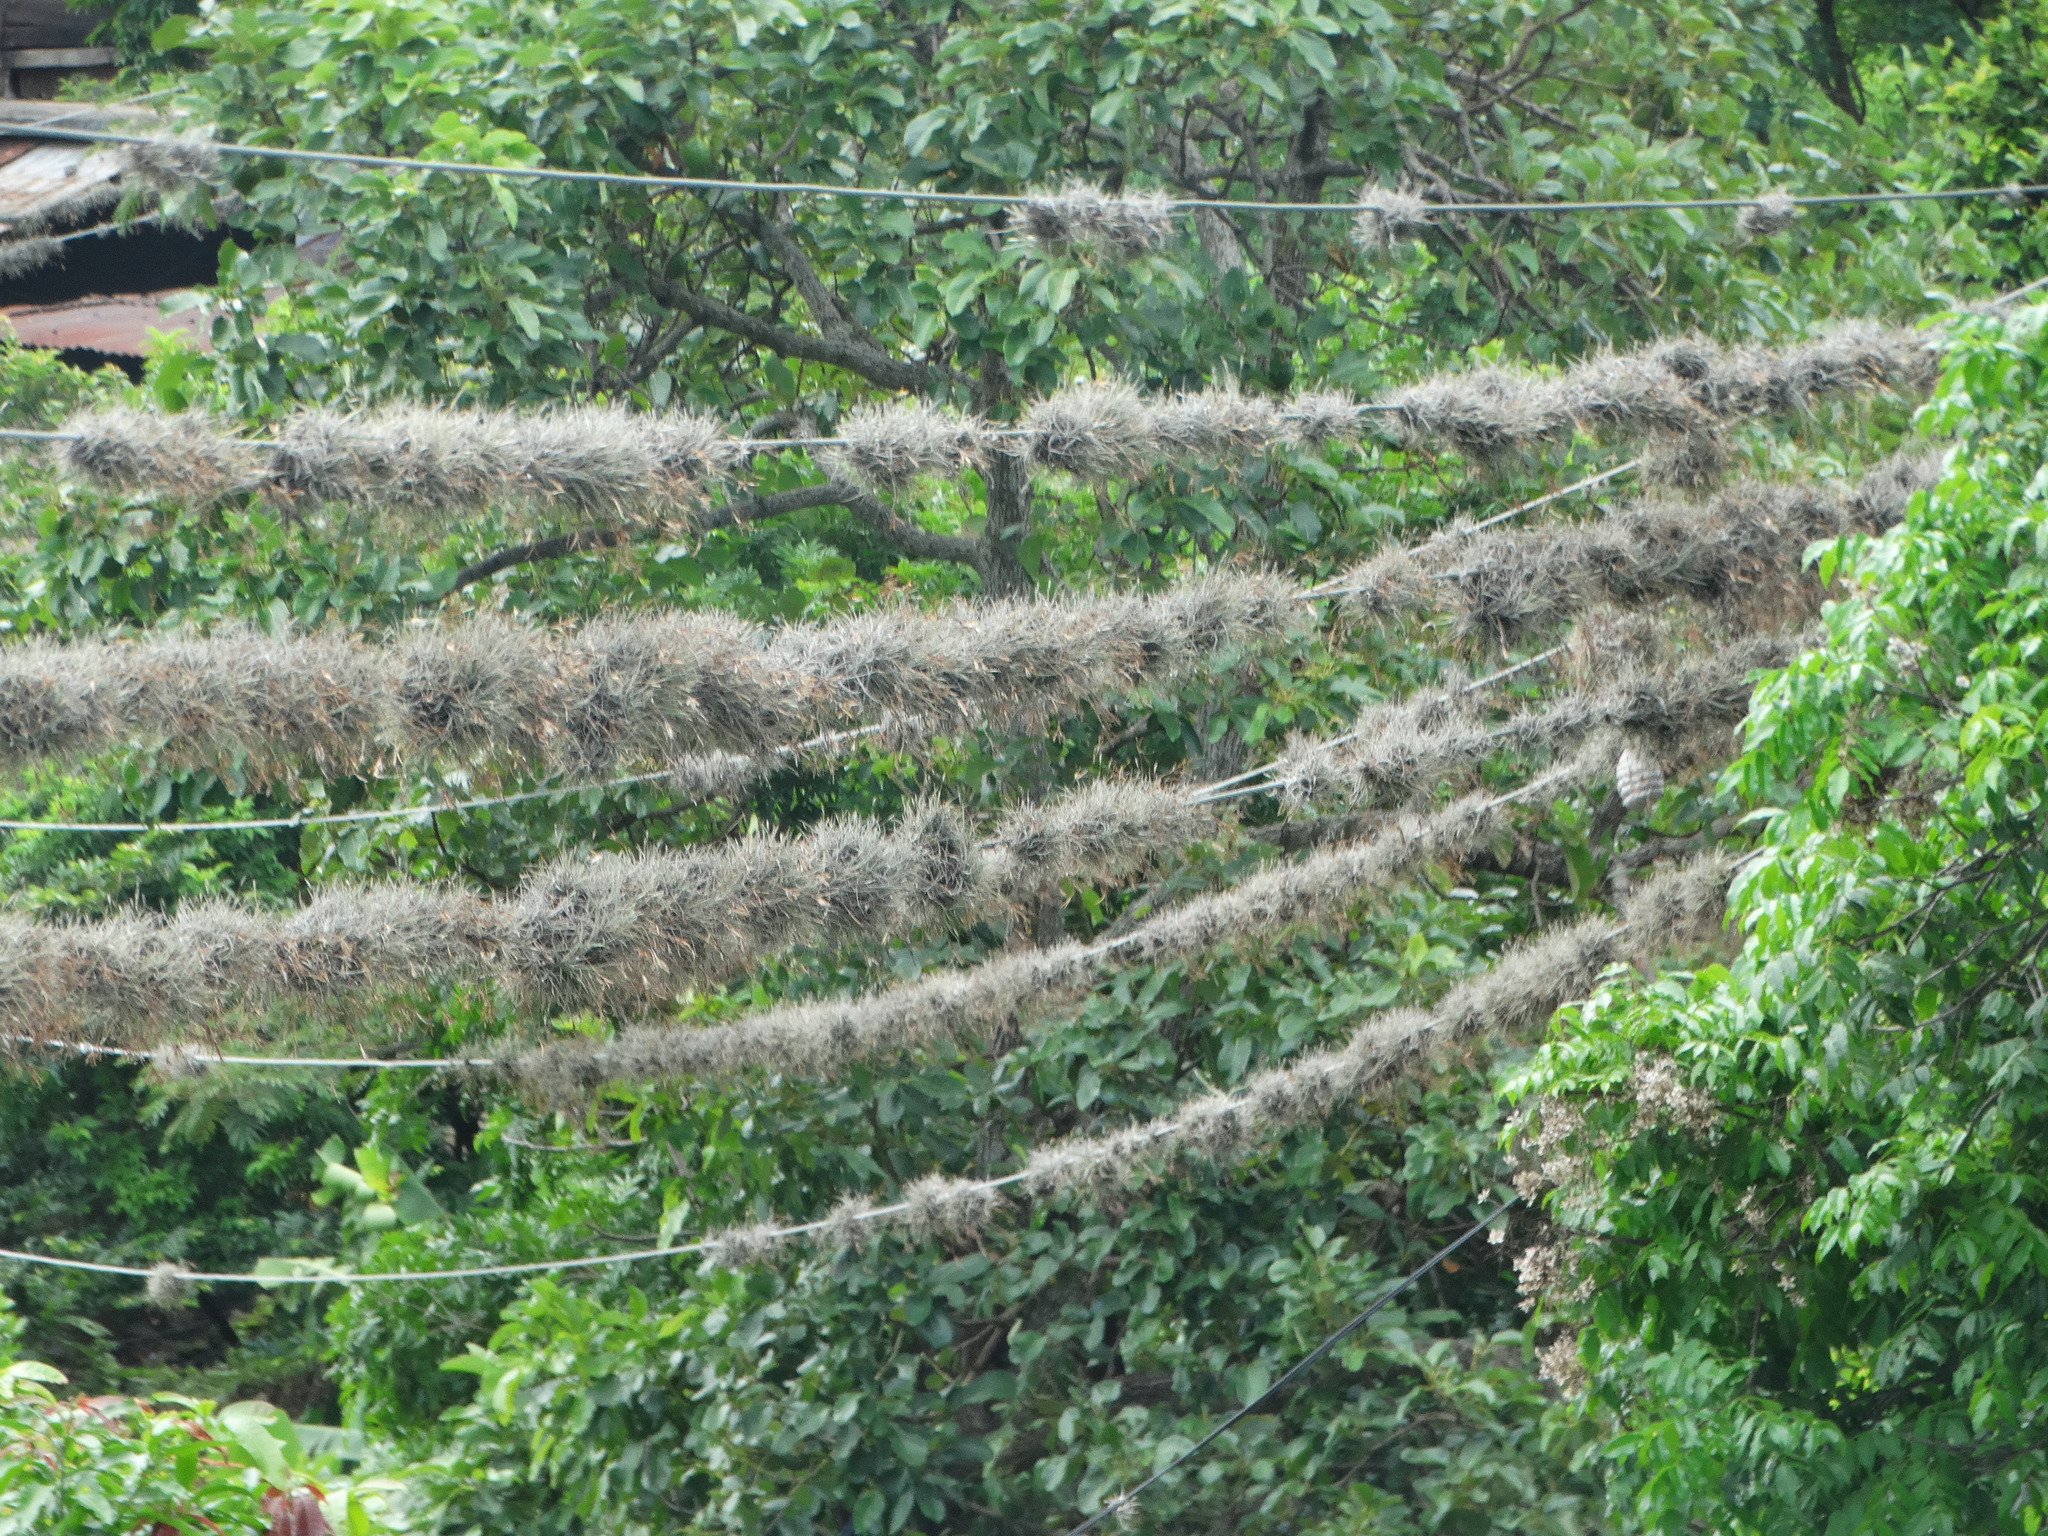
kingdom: Plantae
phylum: Tracheophyta
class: Liliopsida
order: Poales
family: Bromeliaceae
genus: Tillandsia
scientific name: Tillandsia recurvata
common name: Small ballmoss
